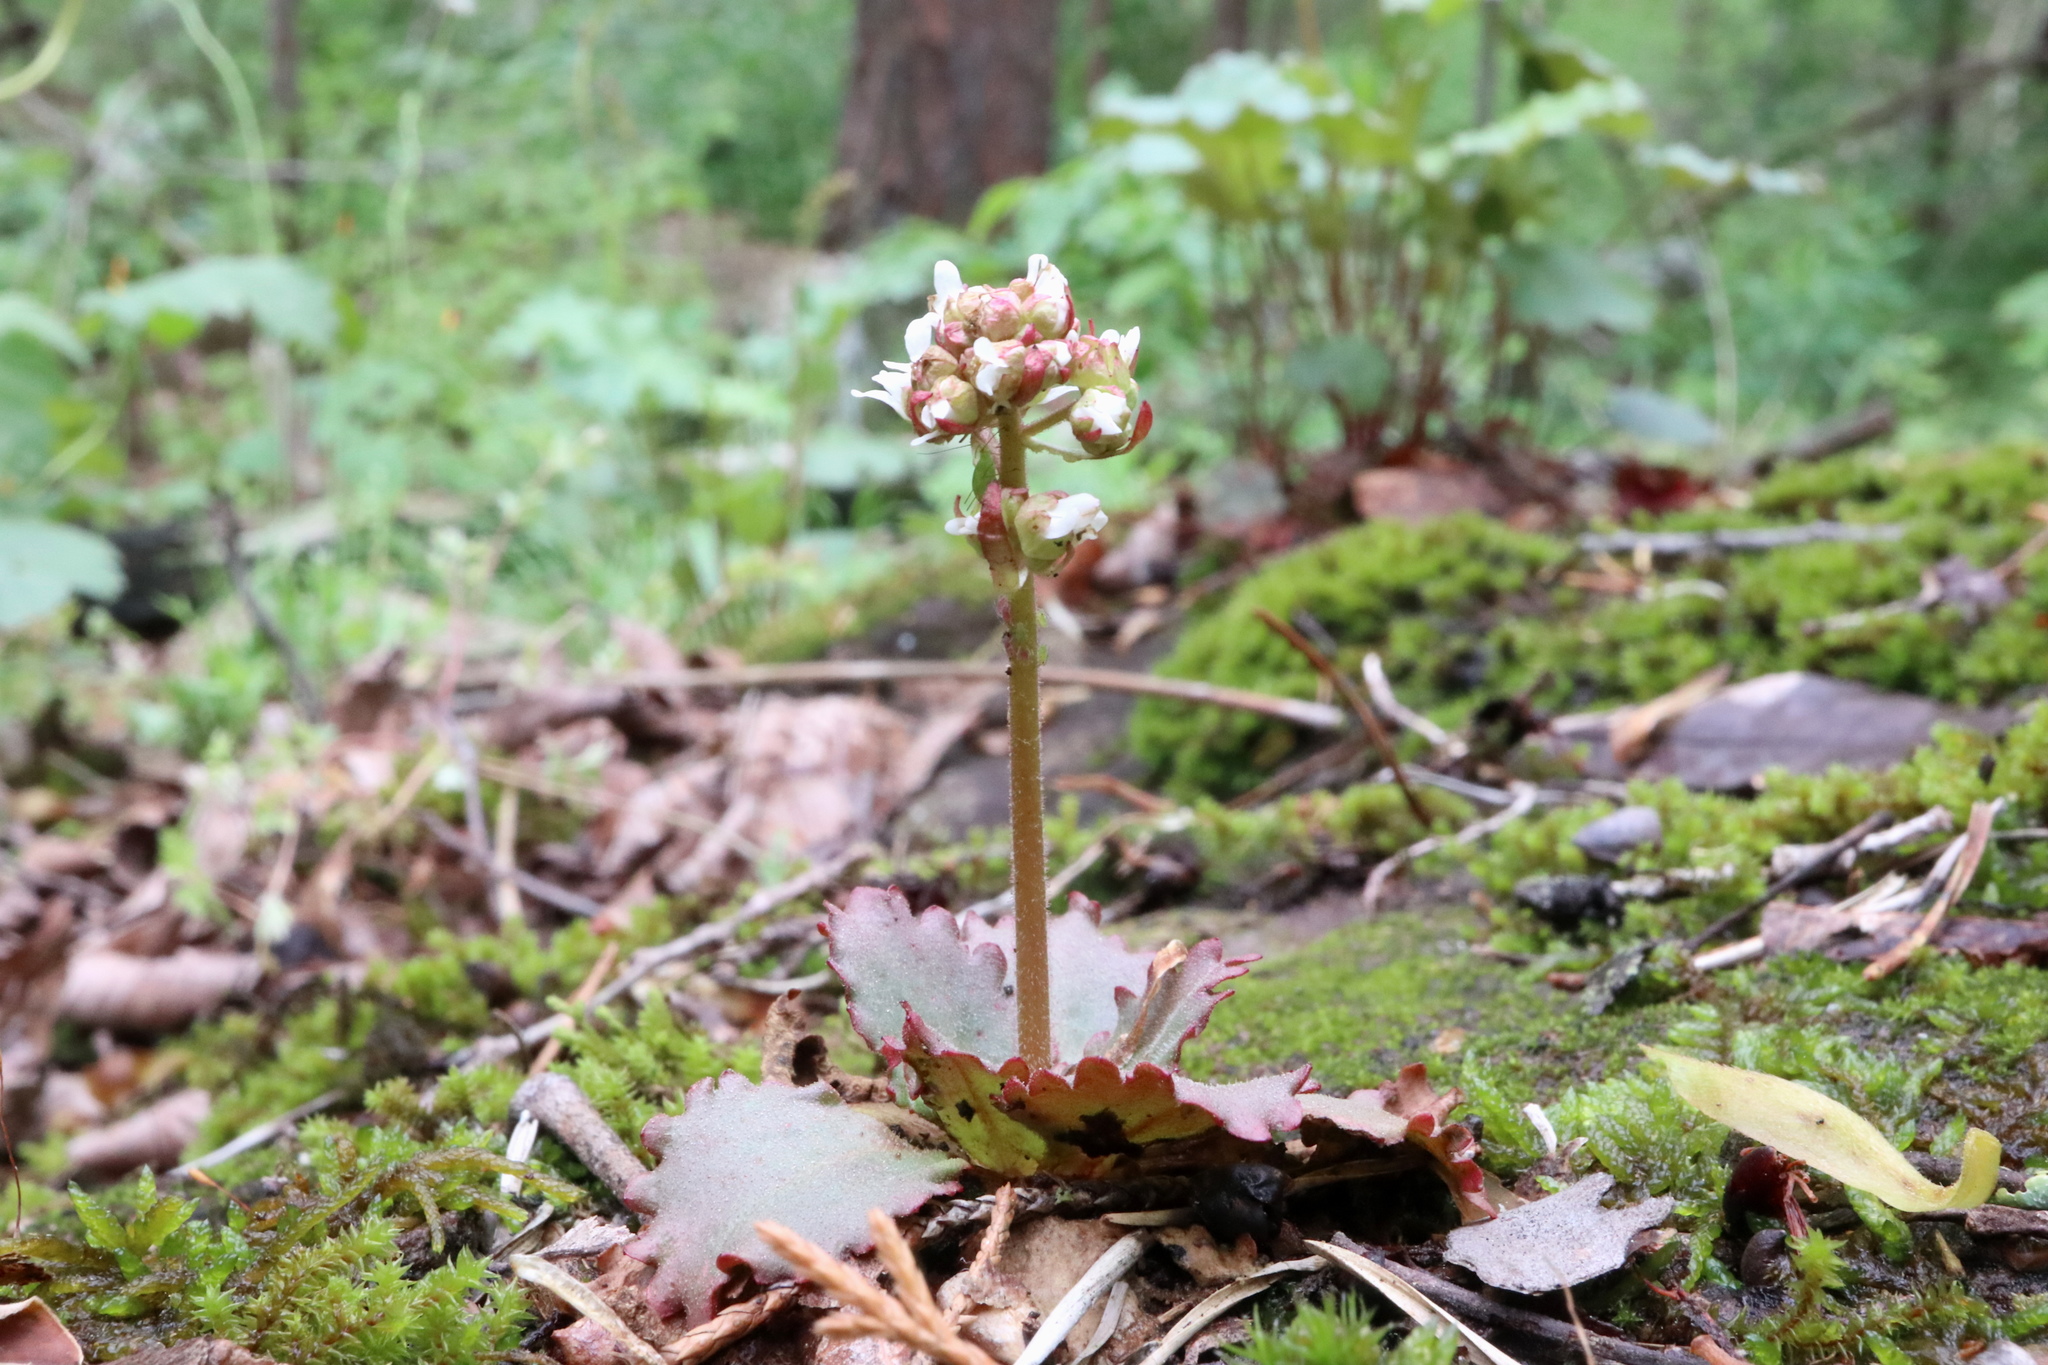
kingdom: Plantae
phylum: Tracheophyta
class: Magnoliopsida
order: Saxifragales
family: Saxifragaceae
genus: Micranthes
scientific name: Micranthes virginiensis
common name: Early saxifrage
